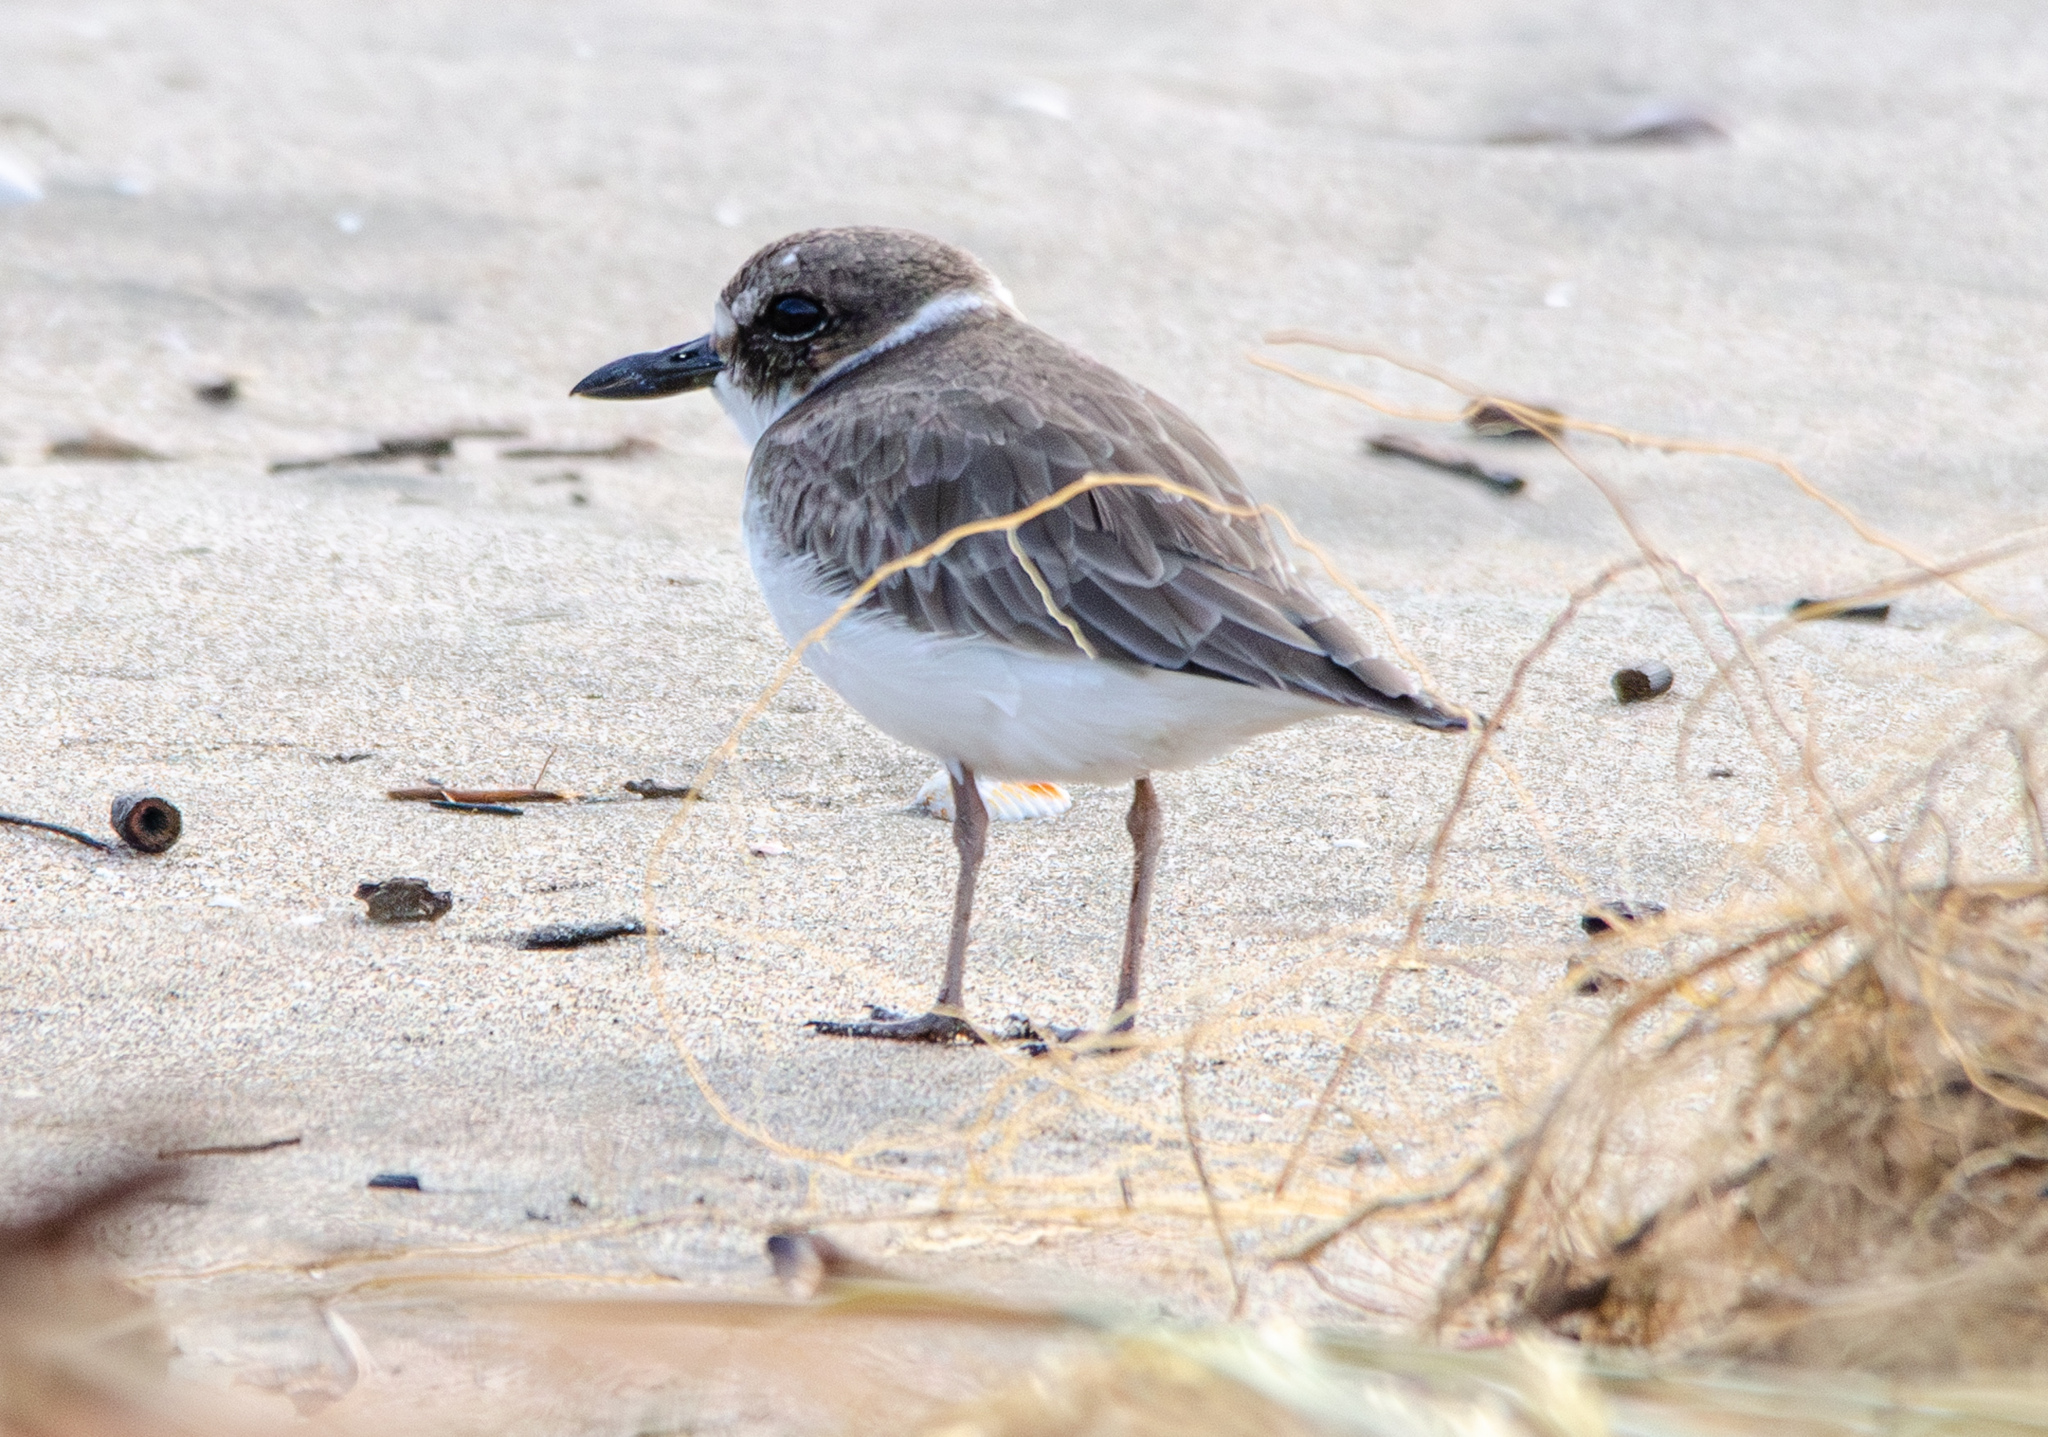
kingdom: Animalia
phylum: Chordata
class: Aves
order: Charadriiformes
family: Charadriidae
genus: Anarhynchus
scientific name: Anarhynchus
